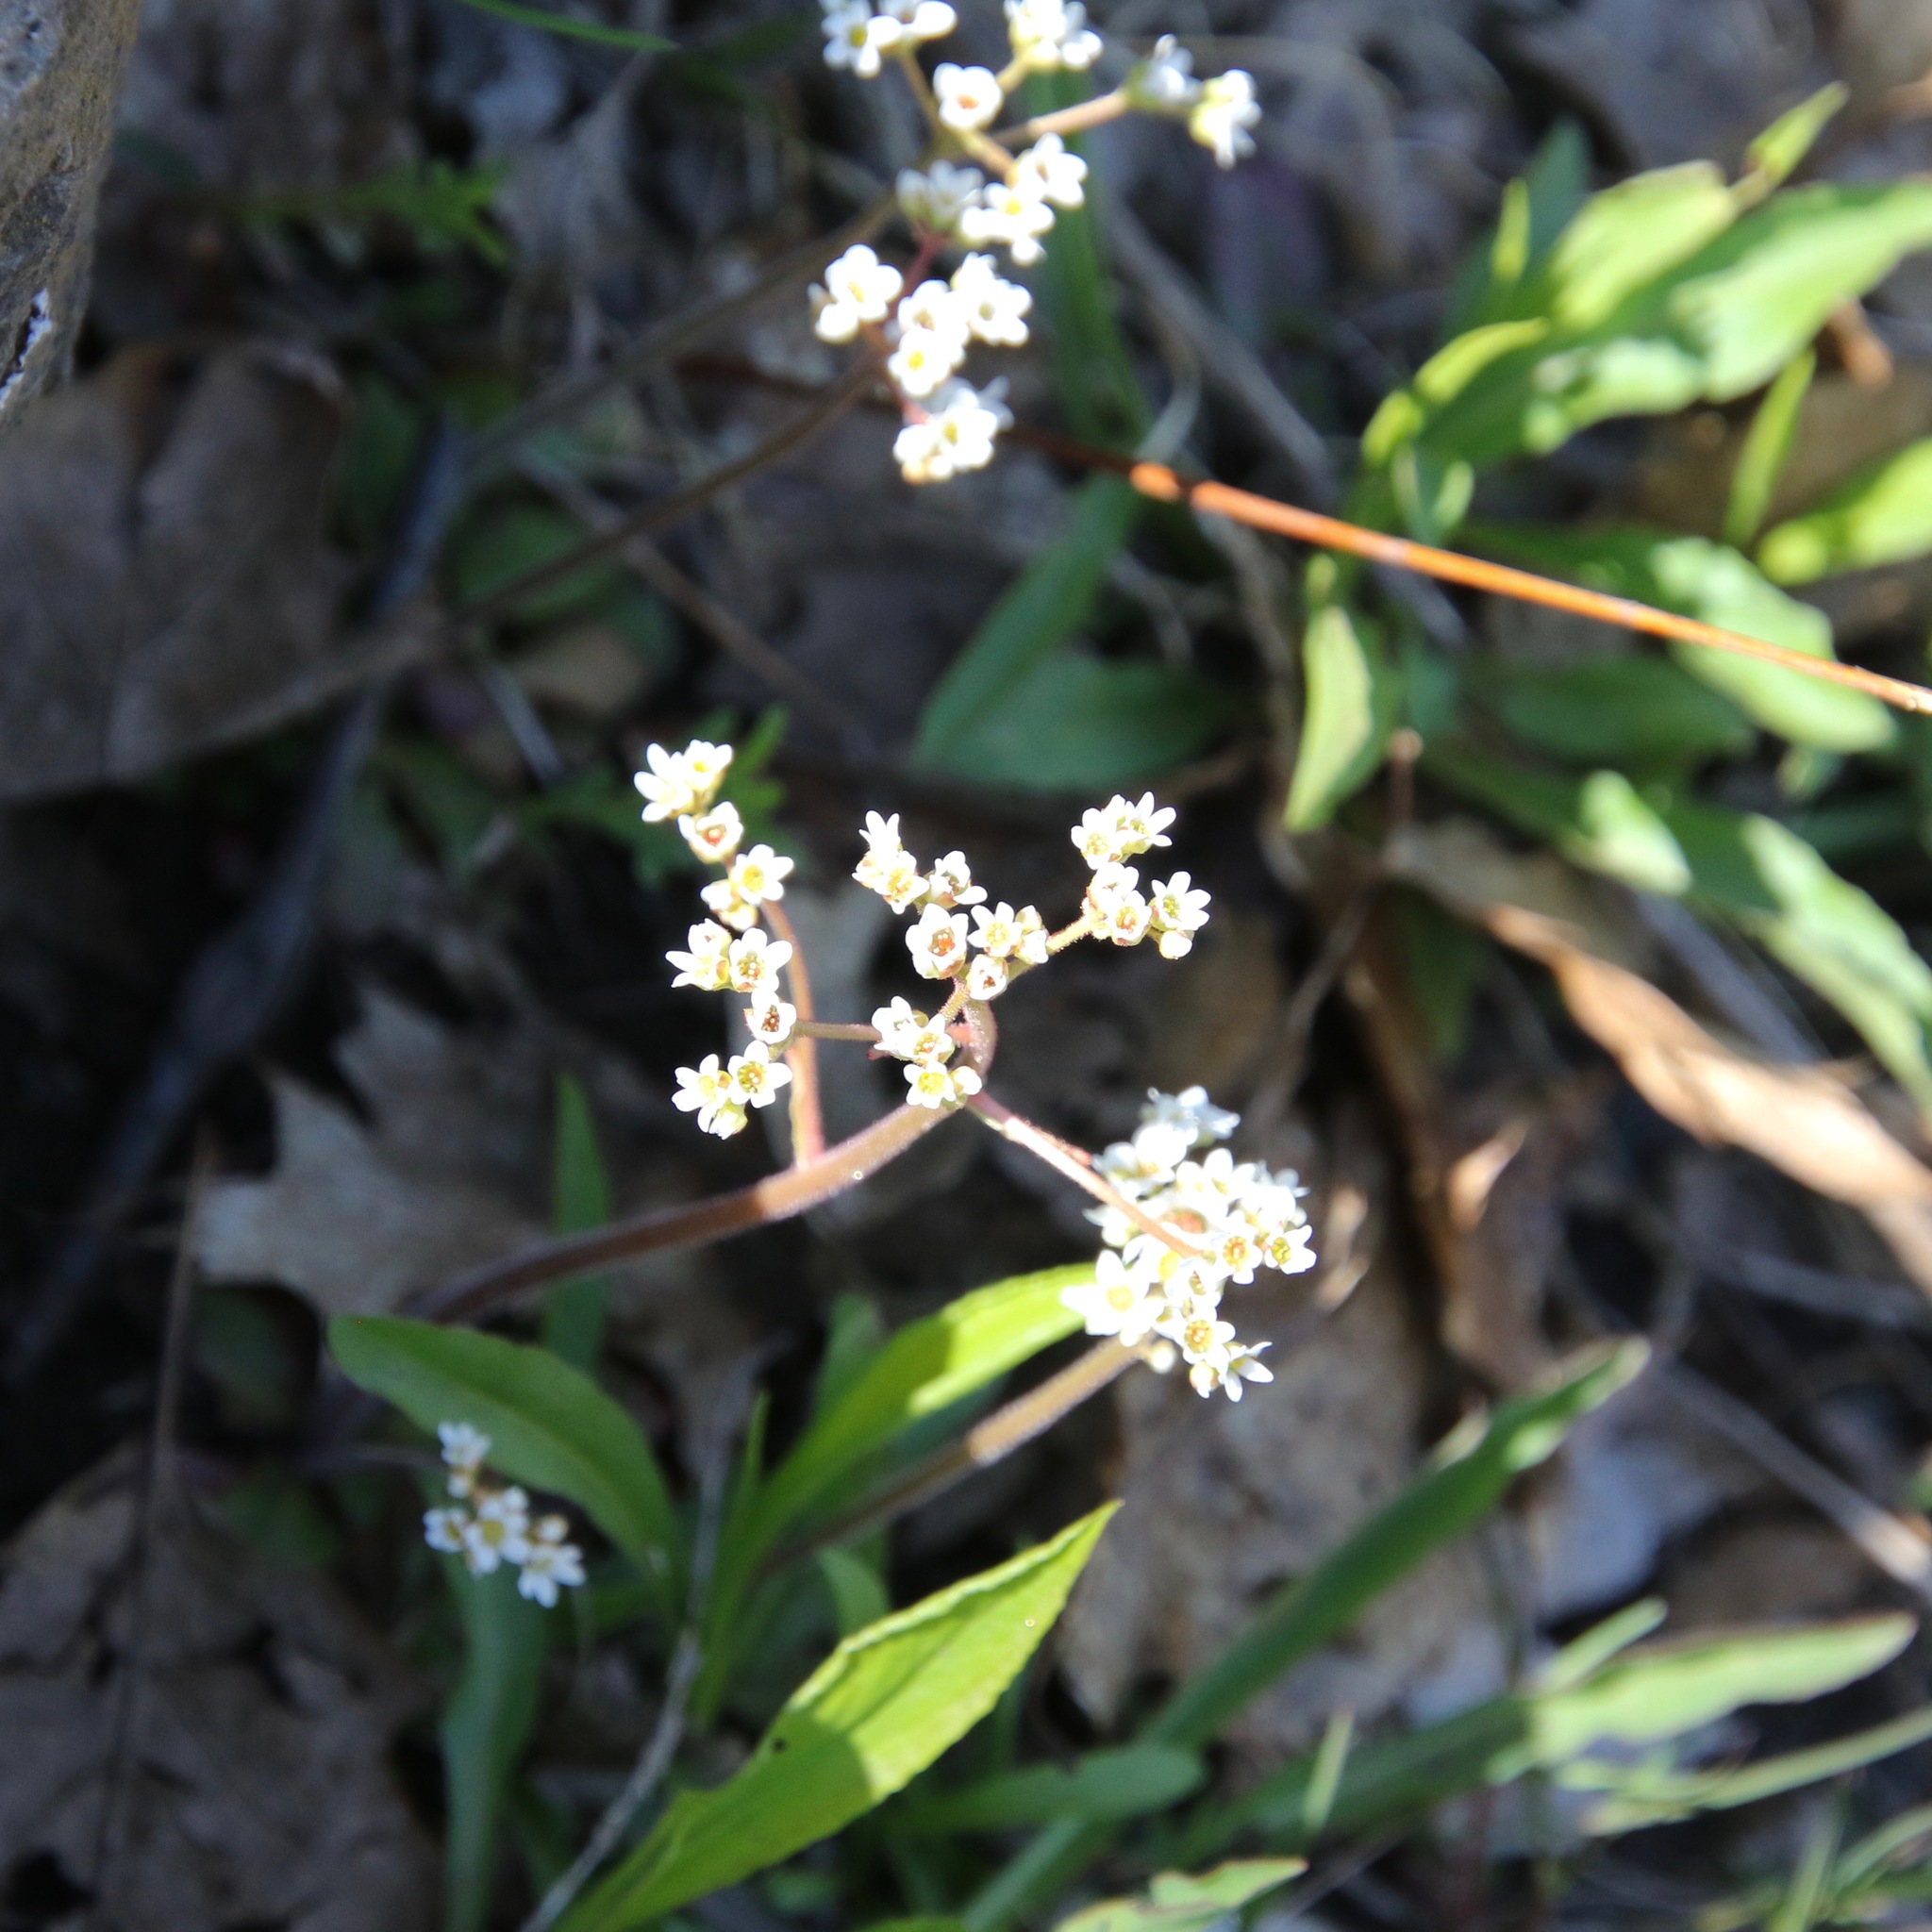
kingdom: Plantae
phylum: Tracheophyta
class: Magnoliopsida
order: Saxifragales
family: Saxifragaceae
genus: Micranthes
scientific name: Micranthes virginiensis
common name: Early saxifrage
